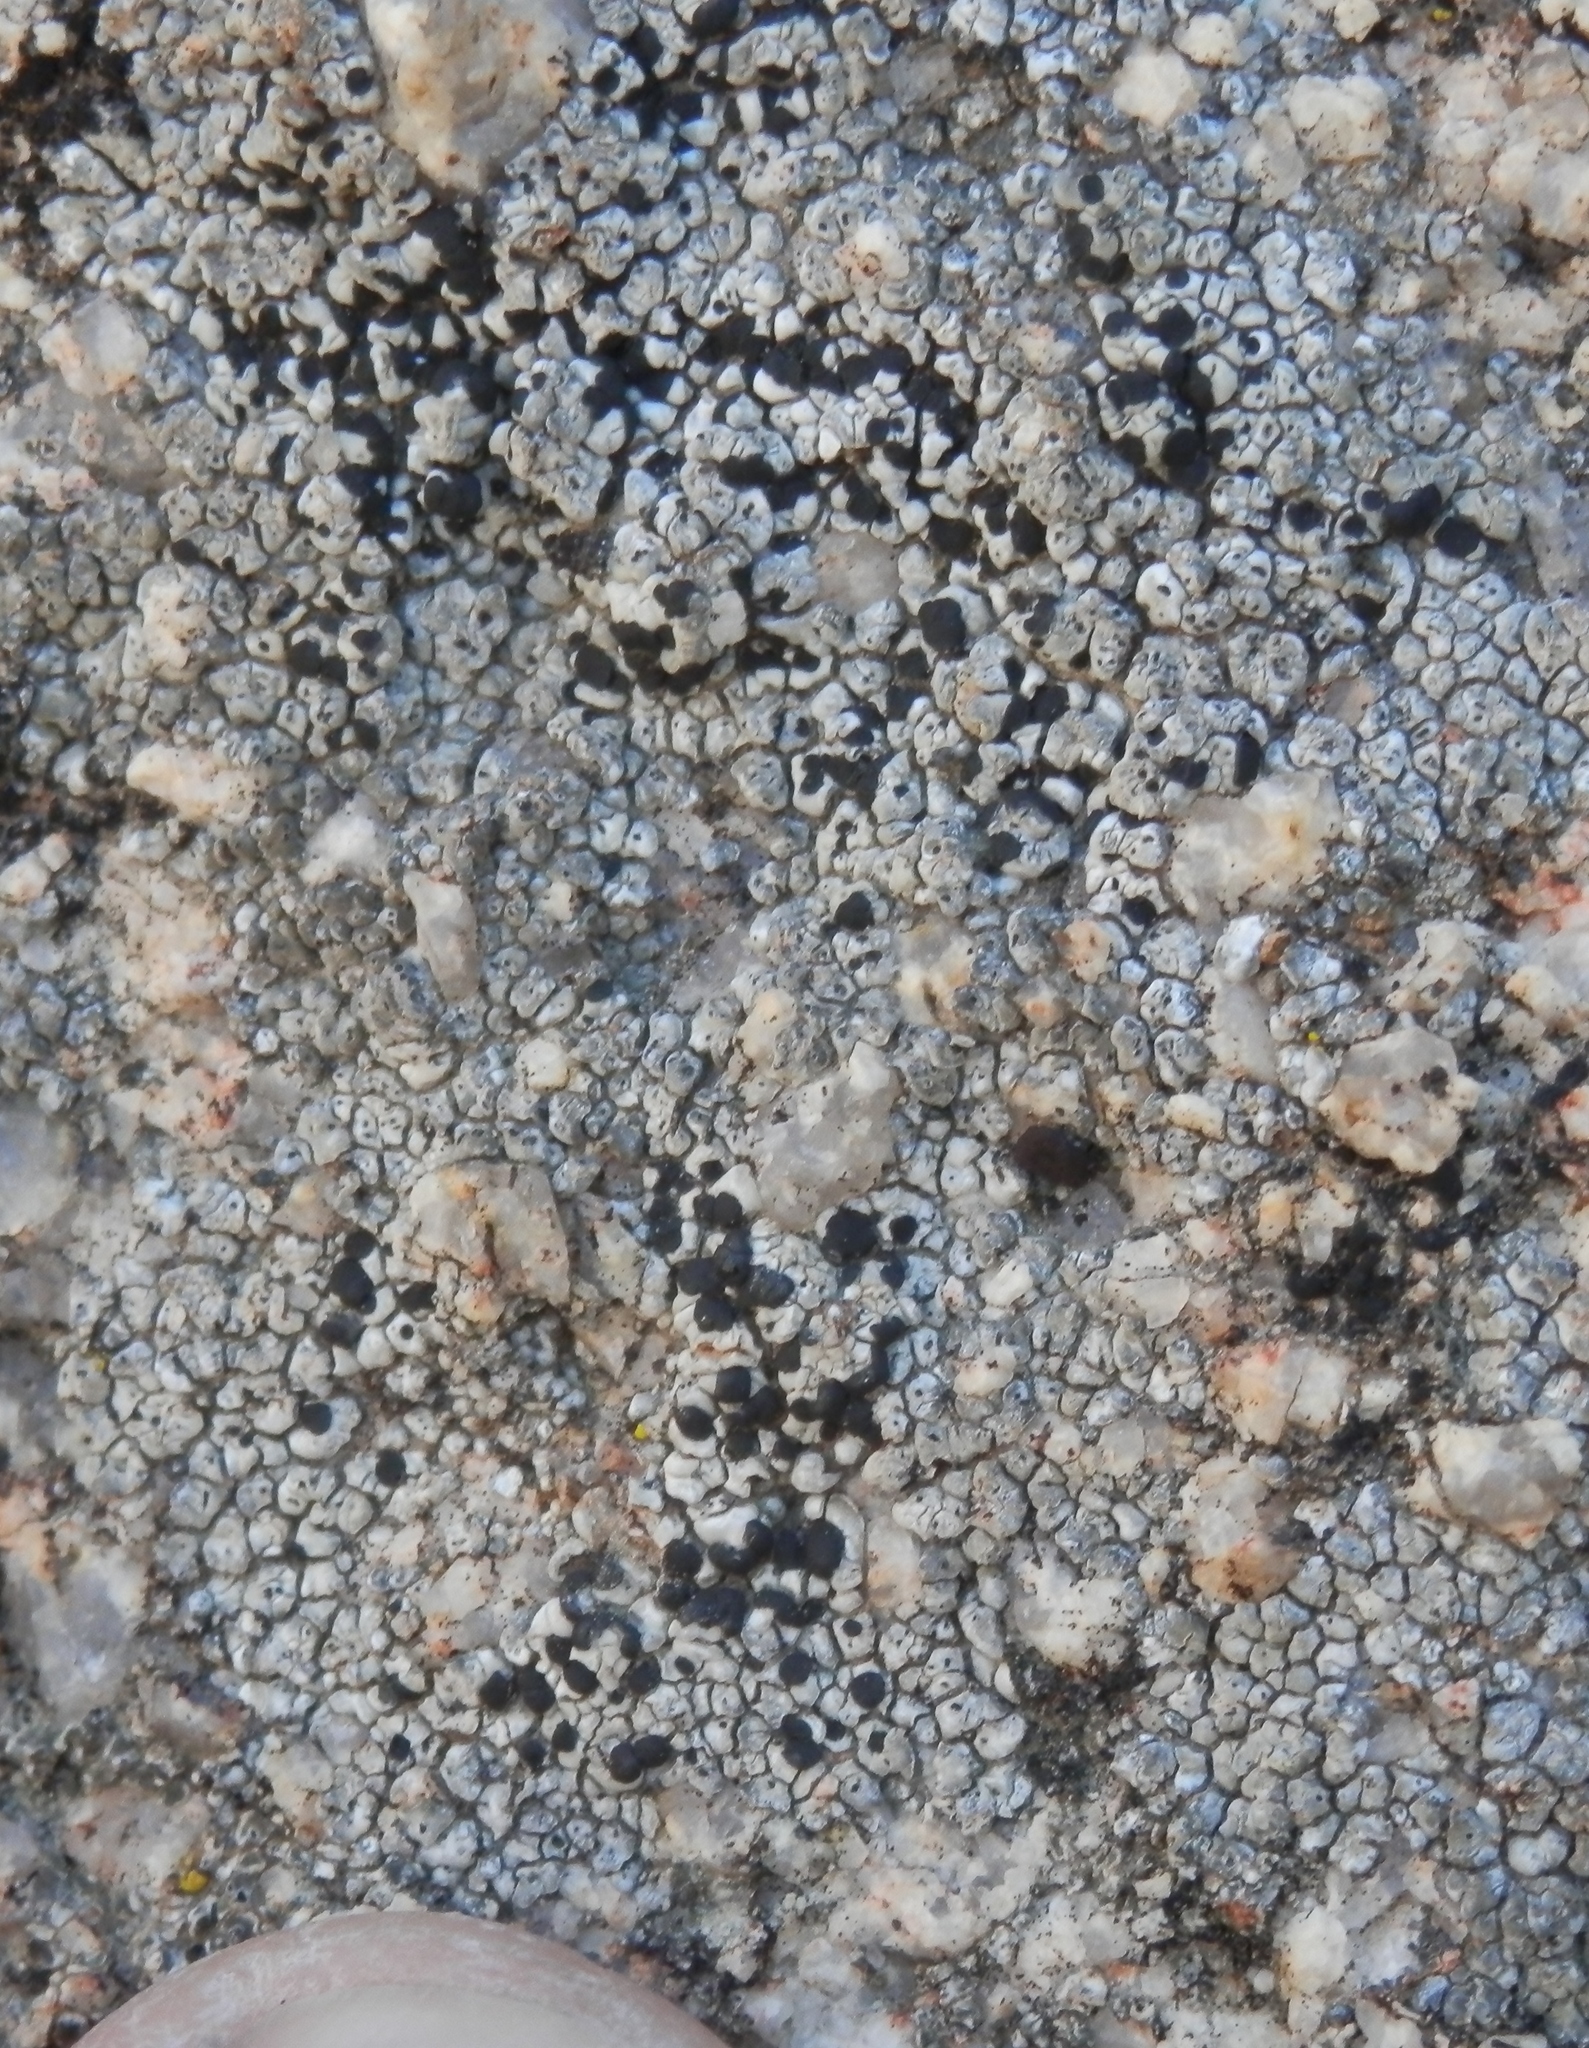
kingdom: Fungi
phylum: Ascomycota
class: Lecanoromycetes
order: Caliciales
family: Caliciaceae
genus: Buellia
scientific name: Buellia dispersa
